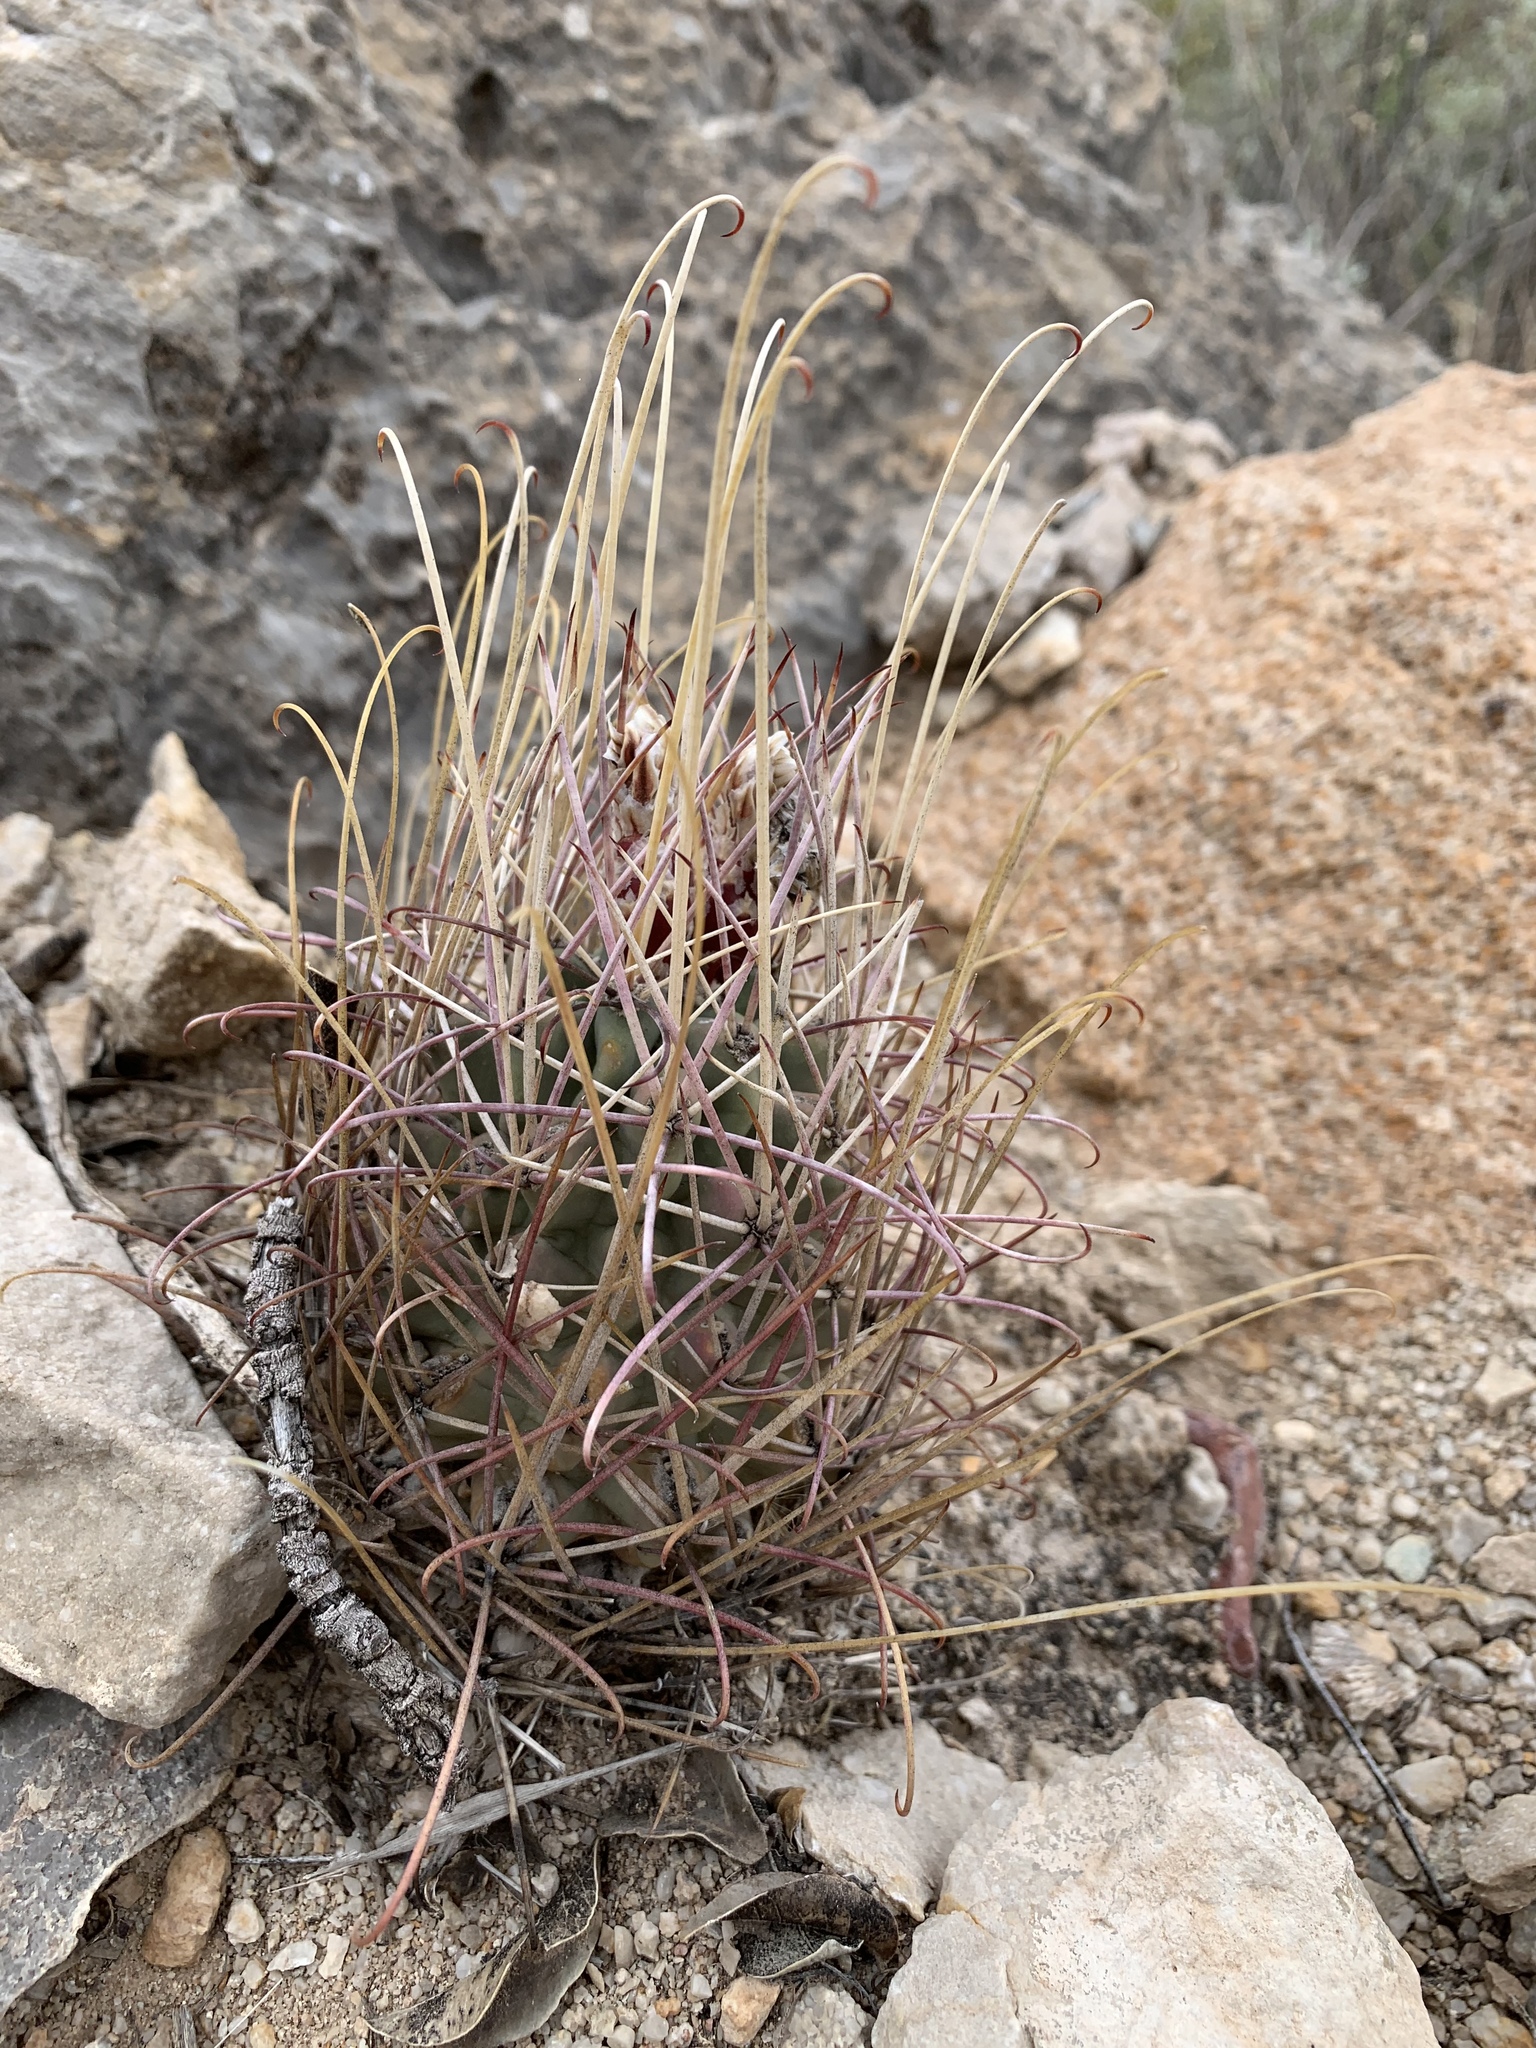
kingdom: Plantae
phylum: Tracheophyta
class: Magnoliopsida
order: Caryophyllales
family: Cactaceae
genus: Ferocactus
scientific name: Ferocactus uncinatus
